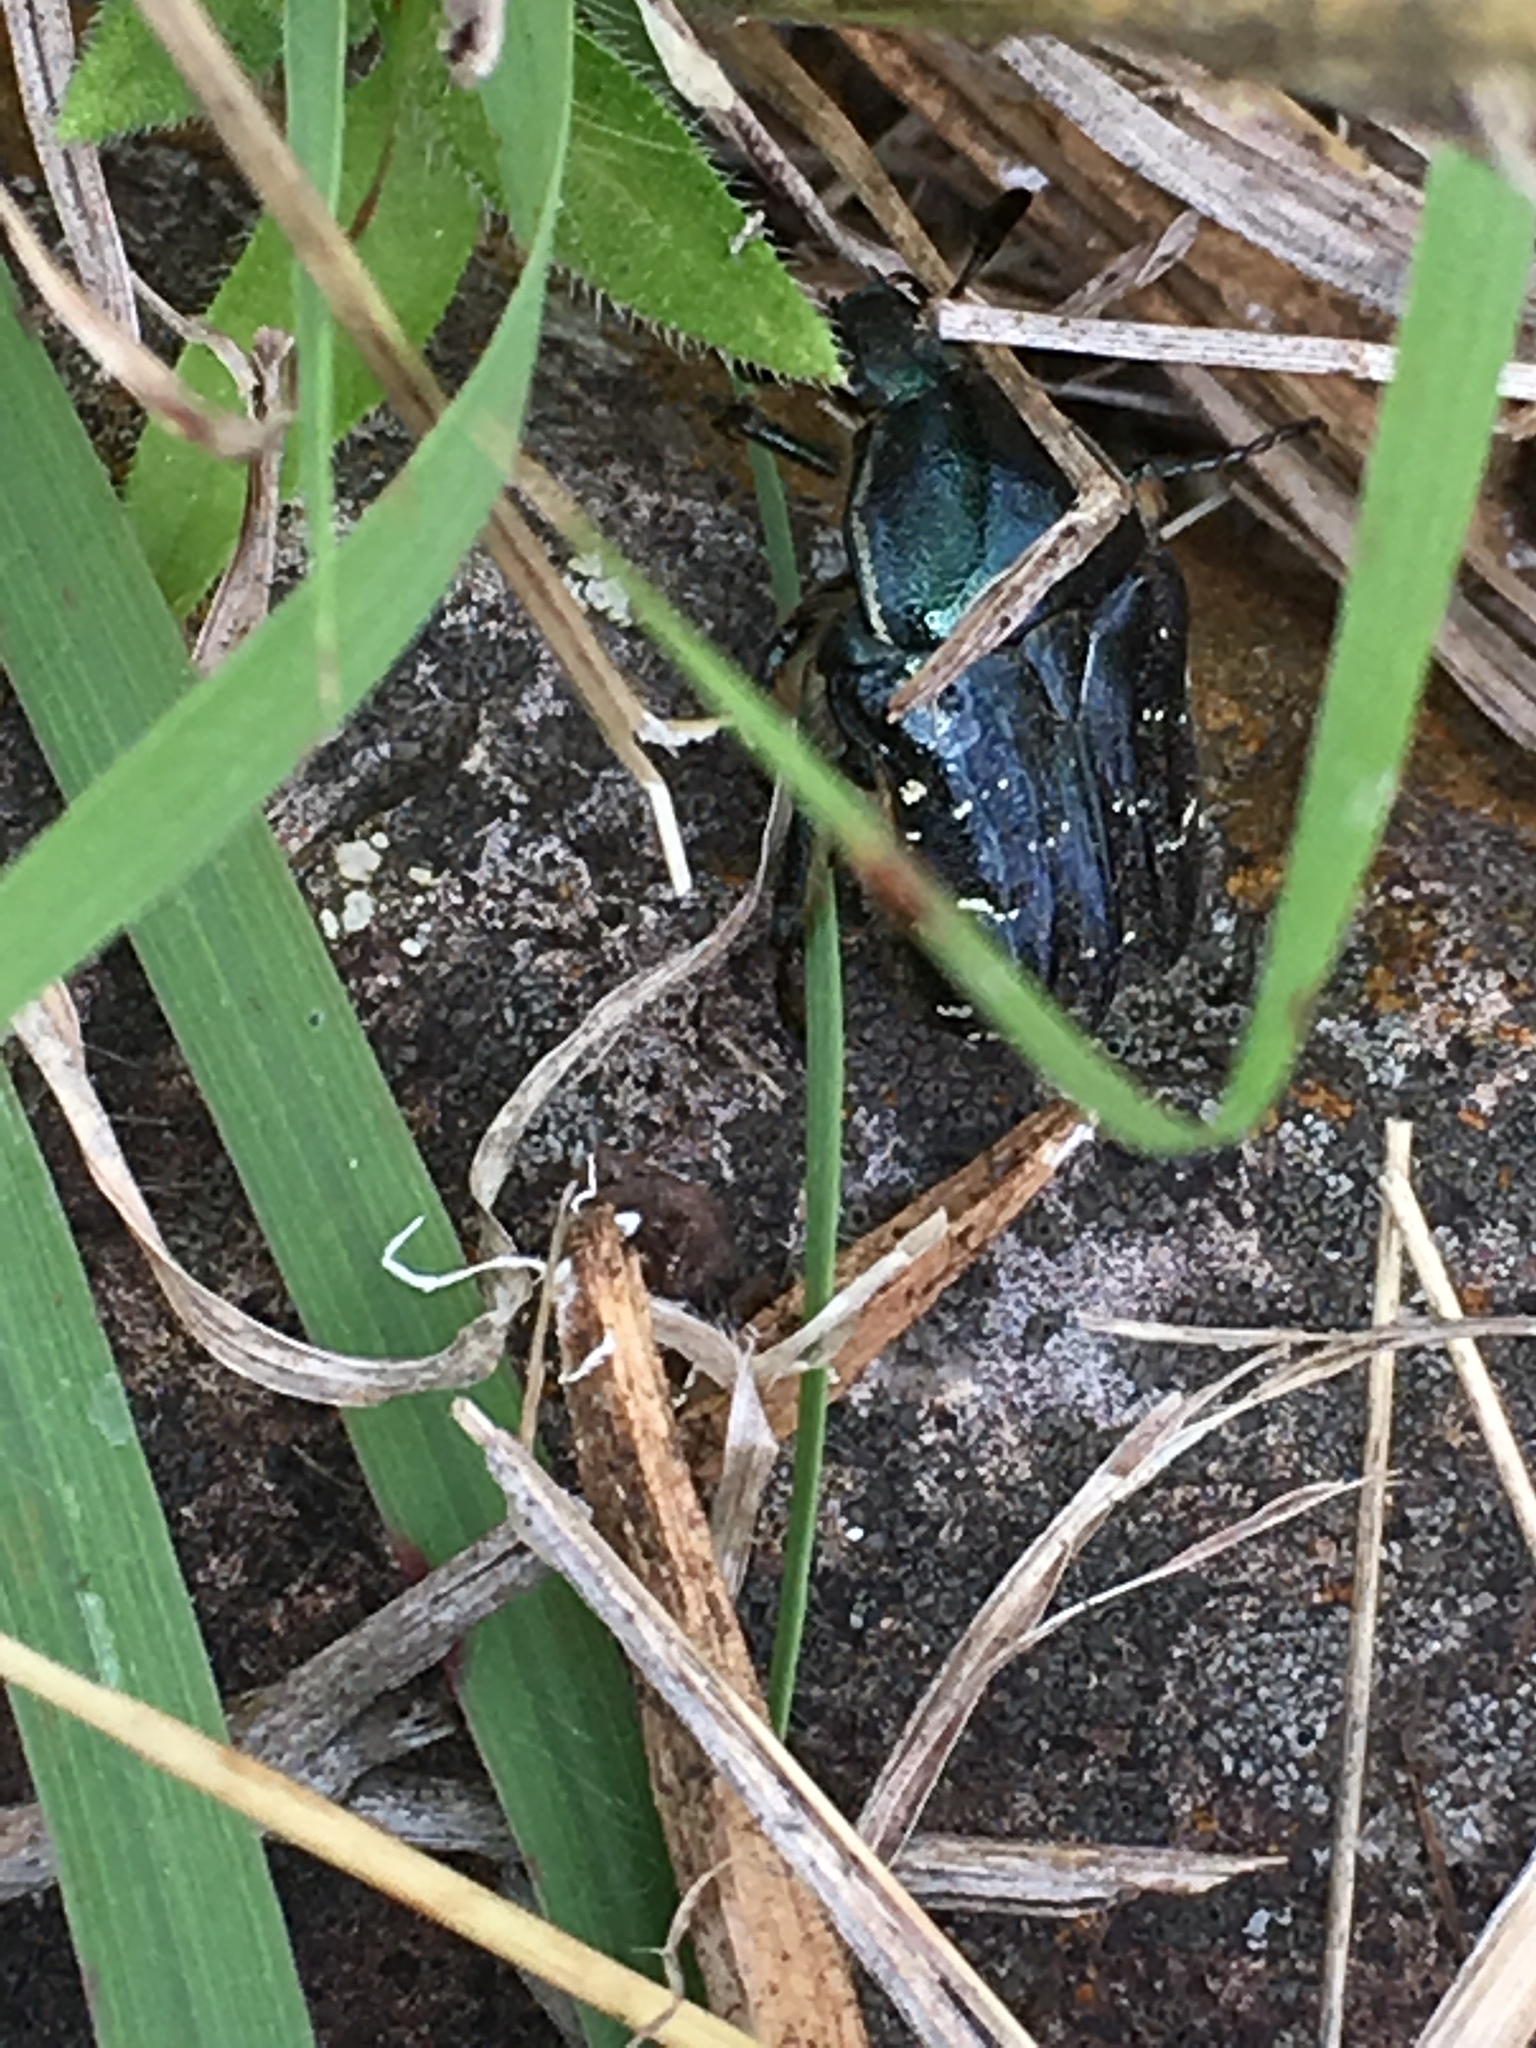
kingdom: Animalia
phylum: Arthropoda
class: Insecta
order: Coleoptera
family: Scarabaeidae
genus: Euphoria
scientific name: Euphoria sepulcralis
